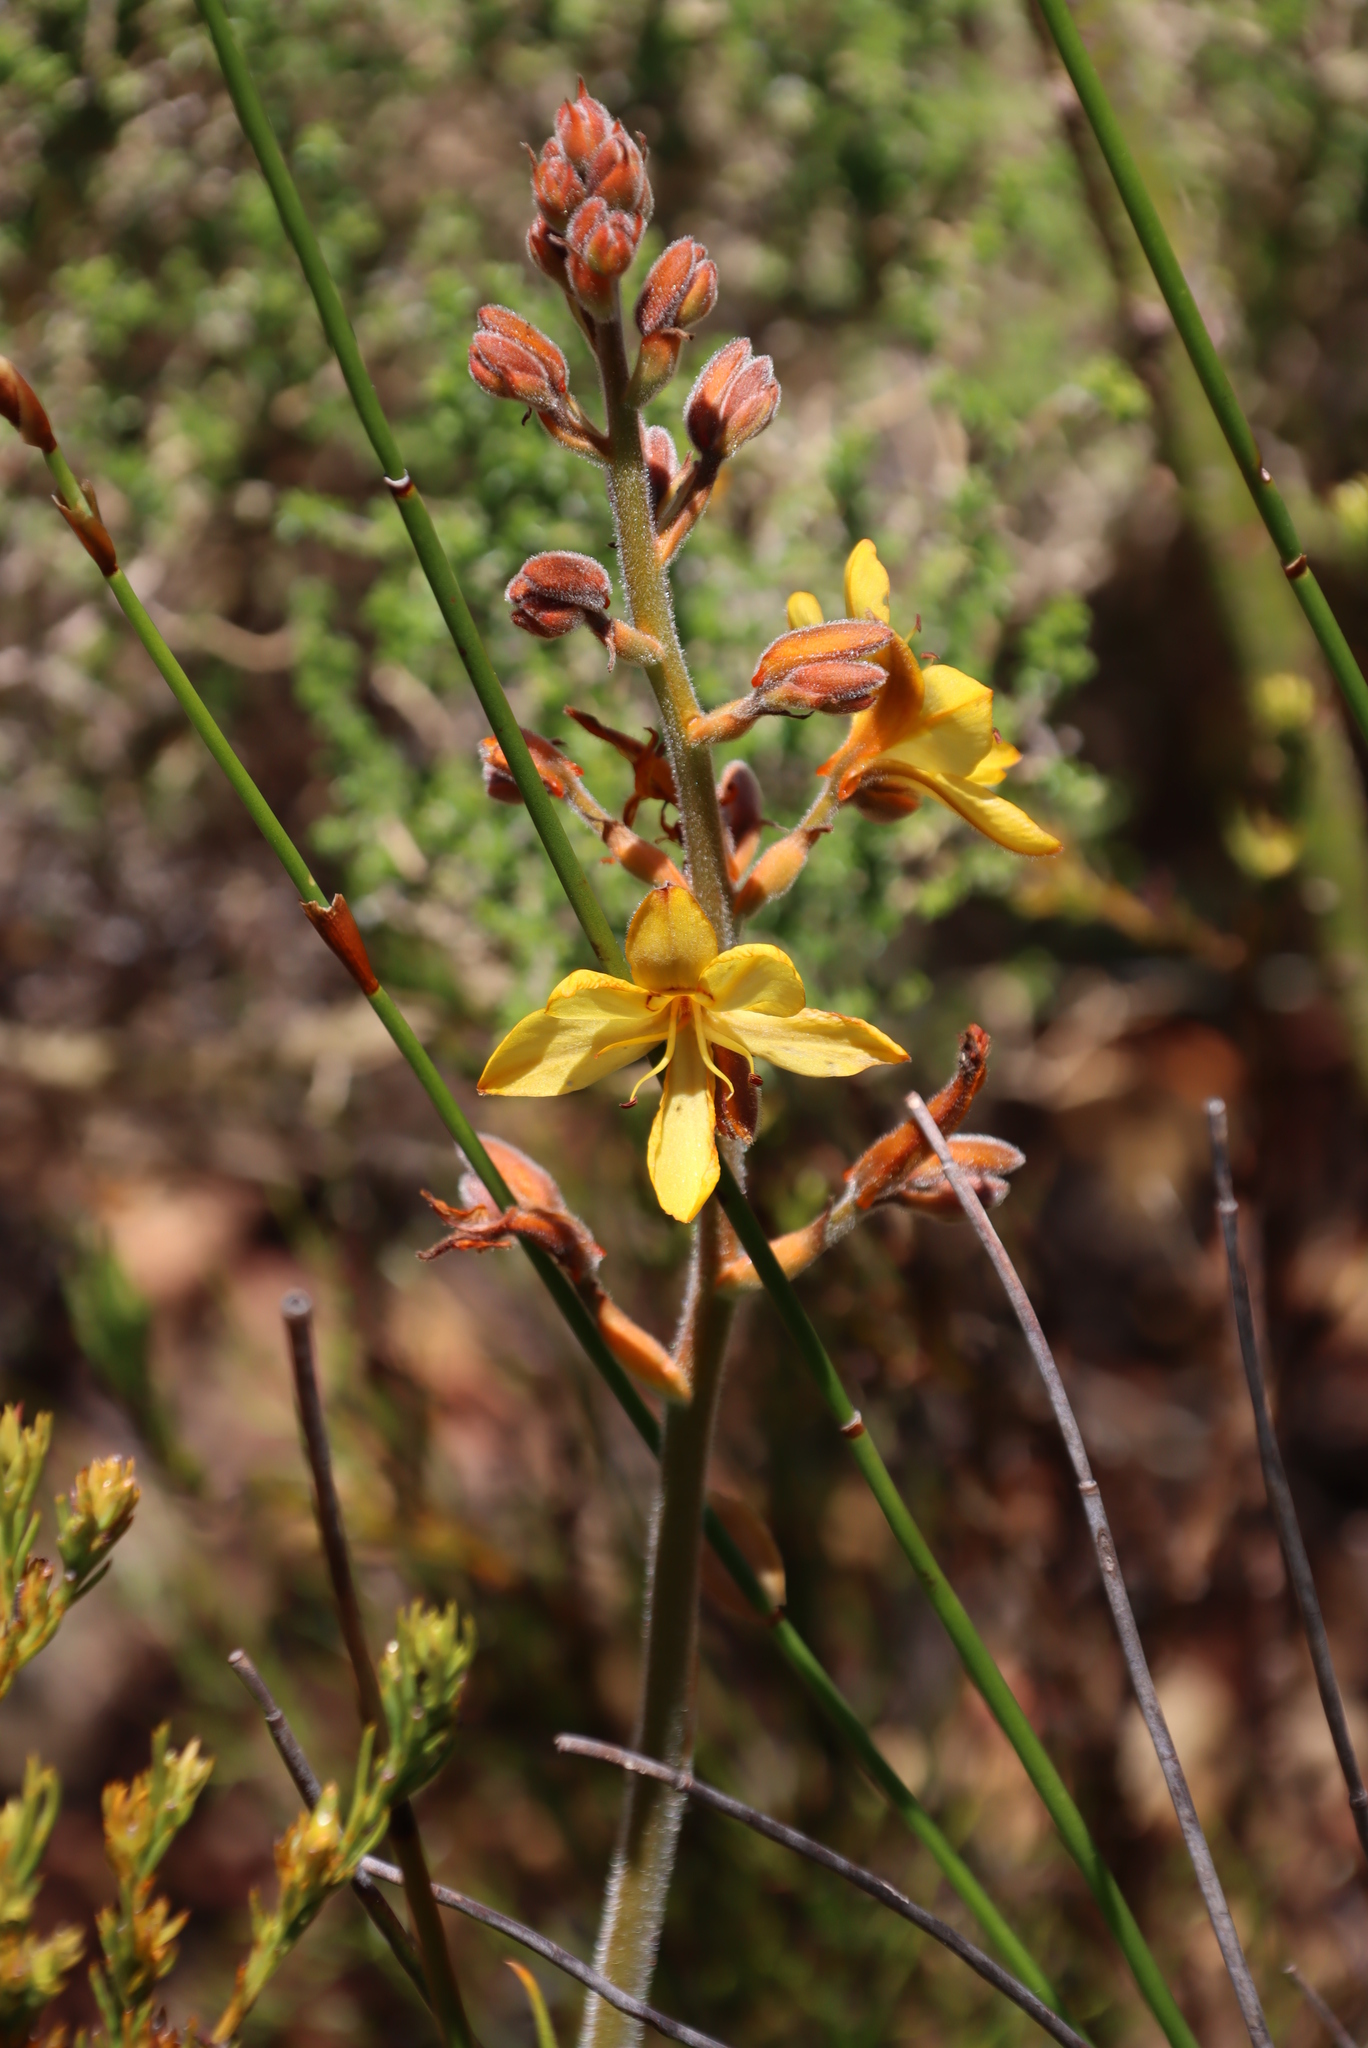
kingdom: Plantae
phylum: Tracheophyta
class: Liliopsida
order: Commelinales
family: Haemodoraceae
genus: Wachendorfia
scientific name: Wachendorfia paniculata
